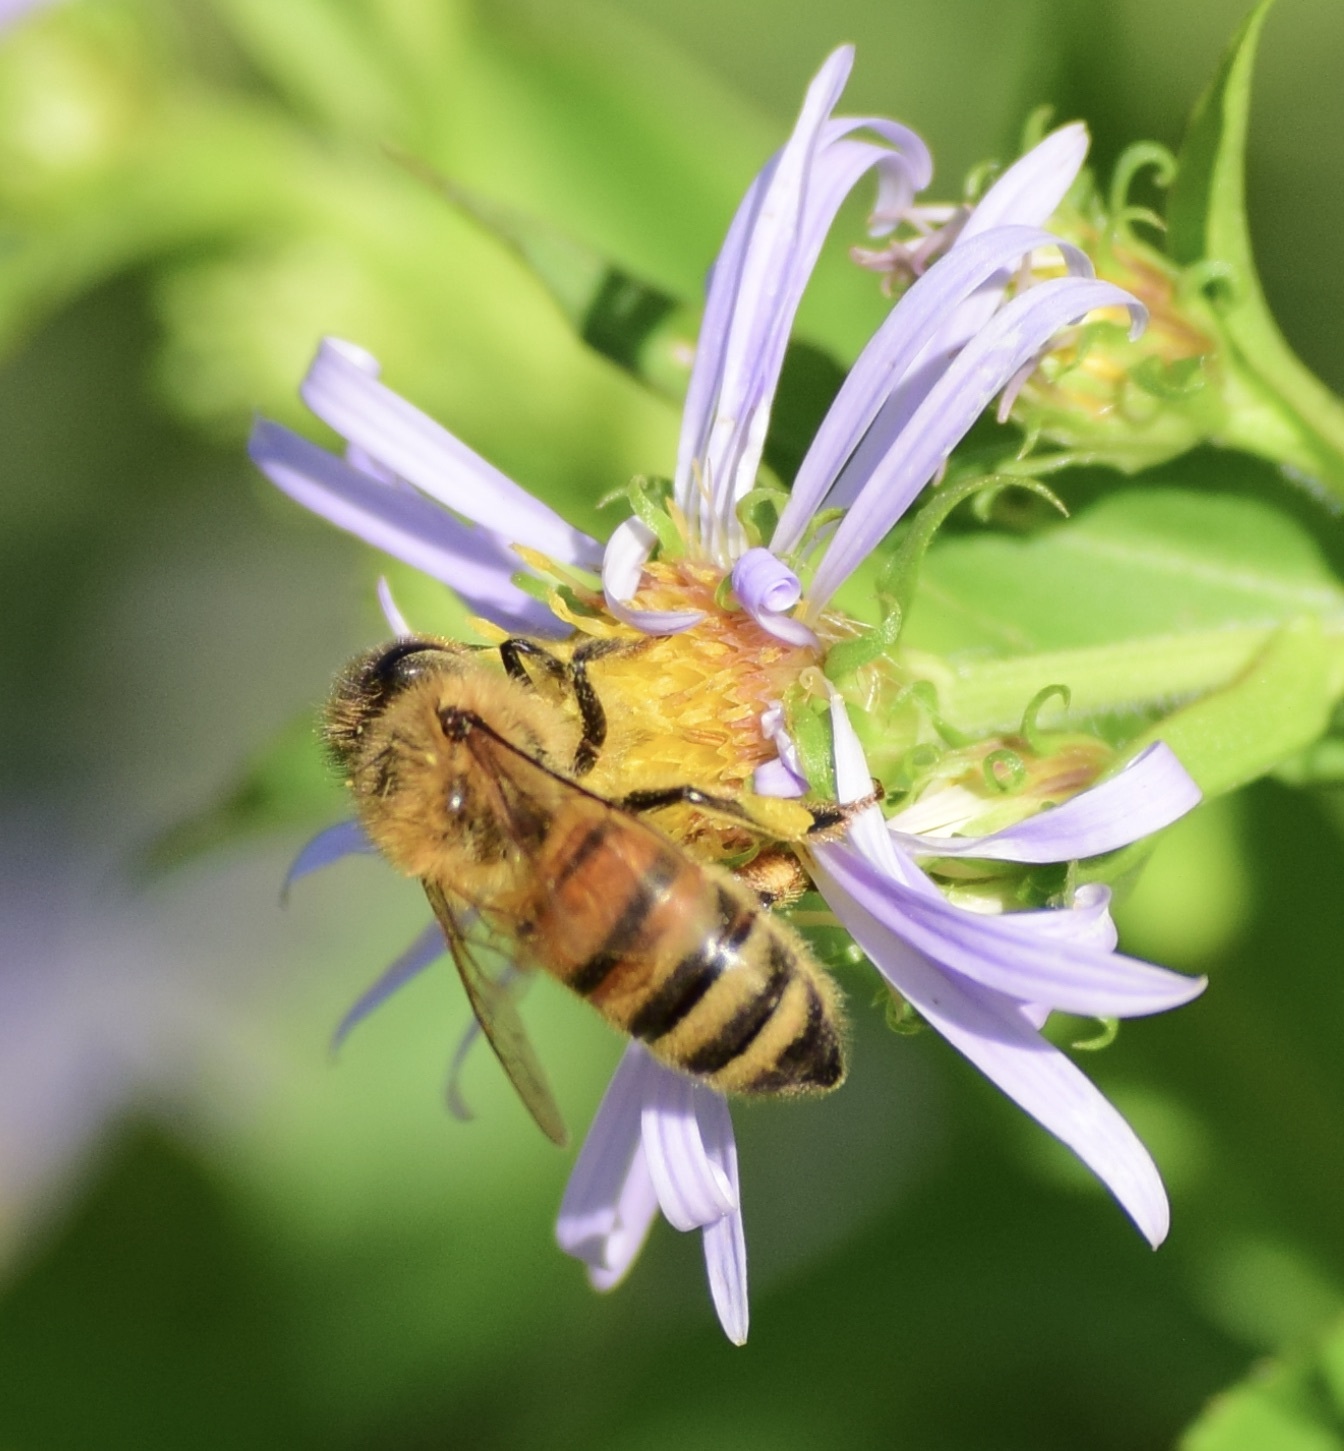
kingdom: Animalia
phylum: Arthropoda
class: Insecta
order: Hymenoptera
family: Apidae
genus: Apis
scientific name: Apis mellifera
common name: Honey bee
